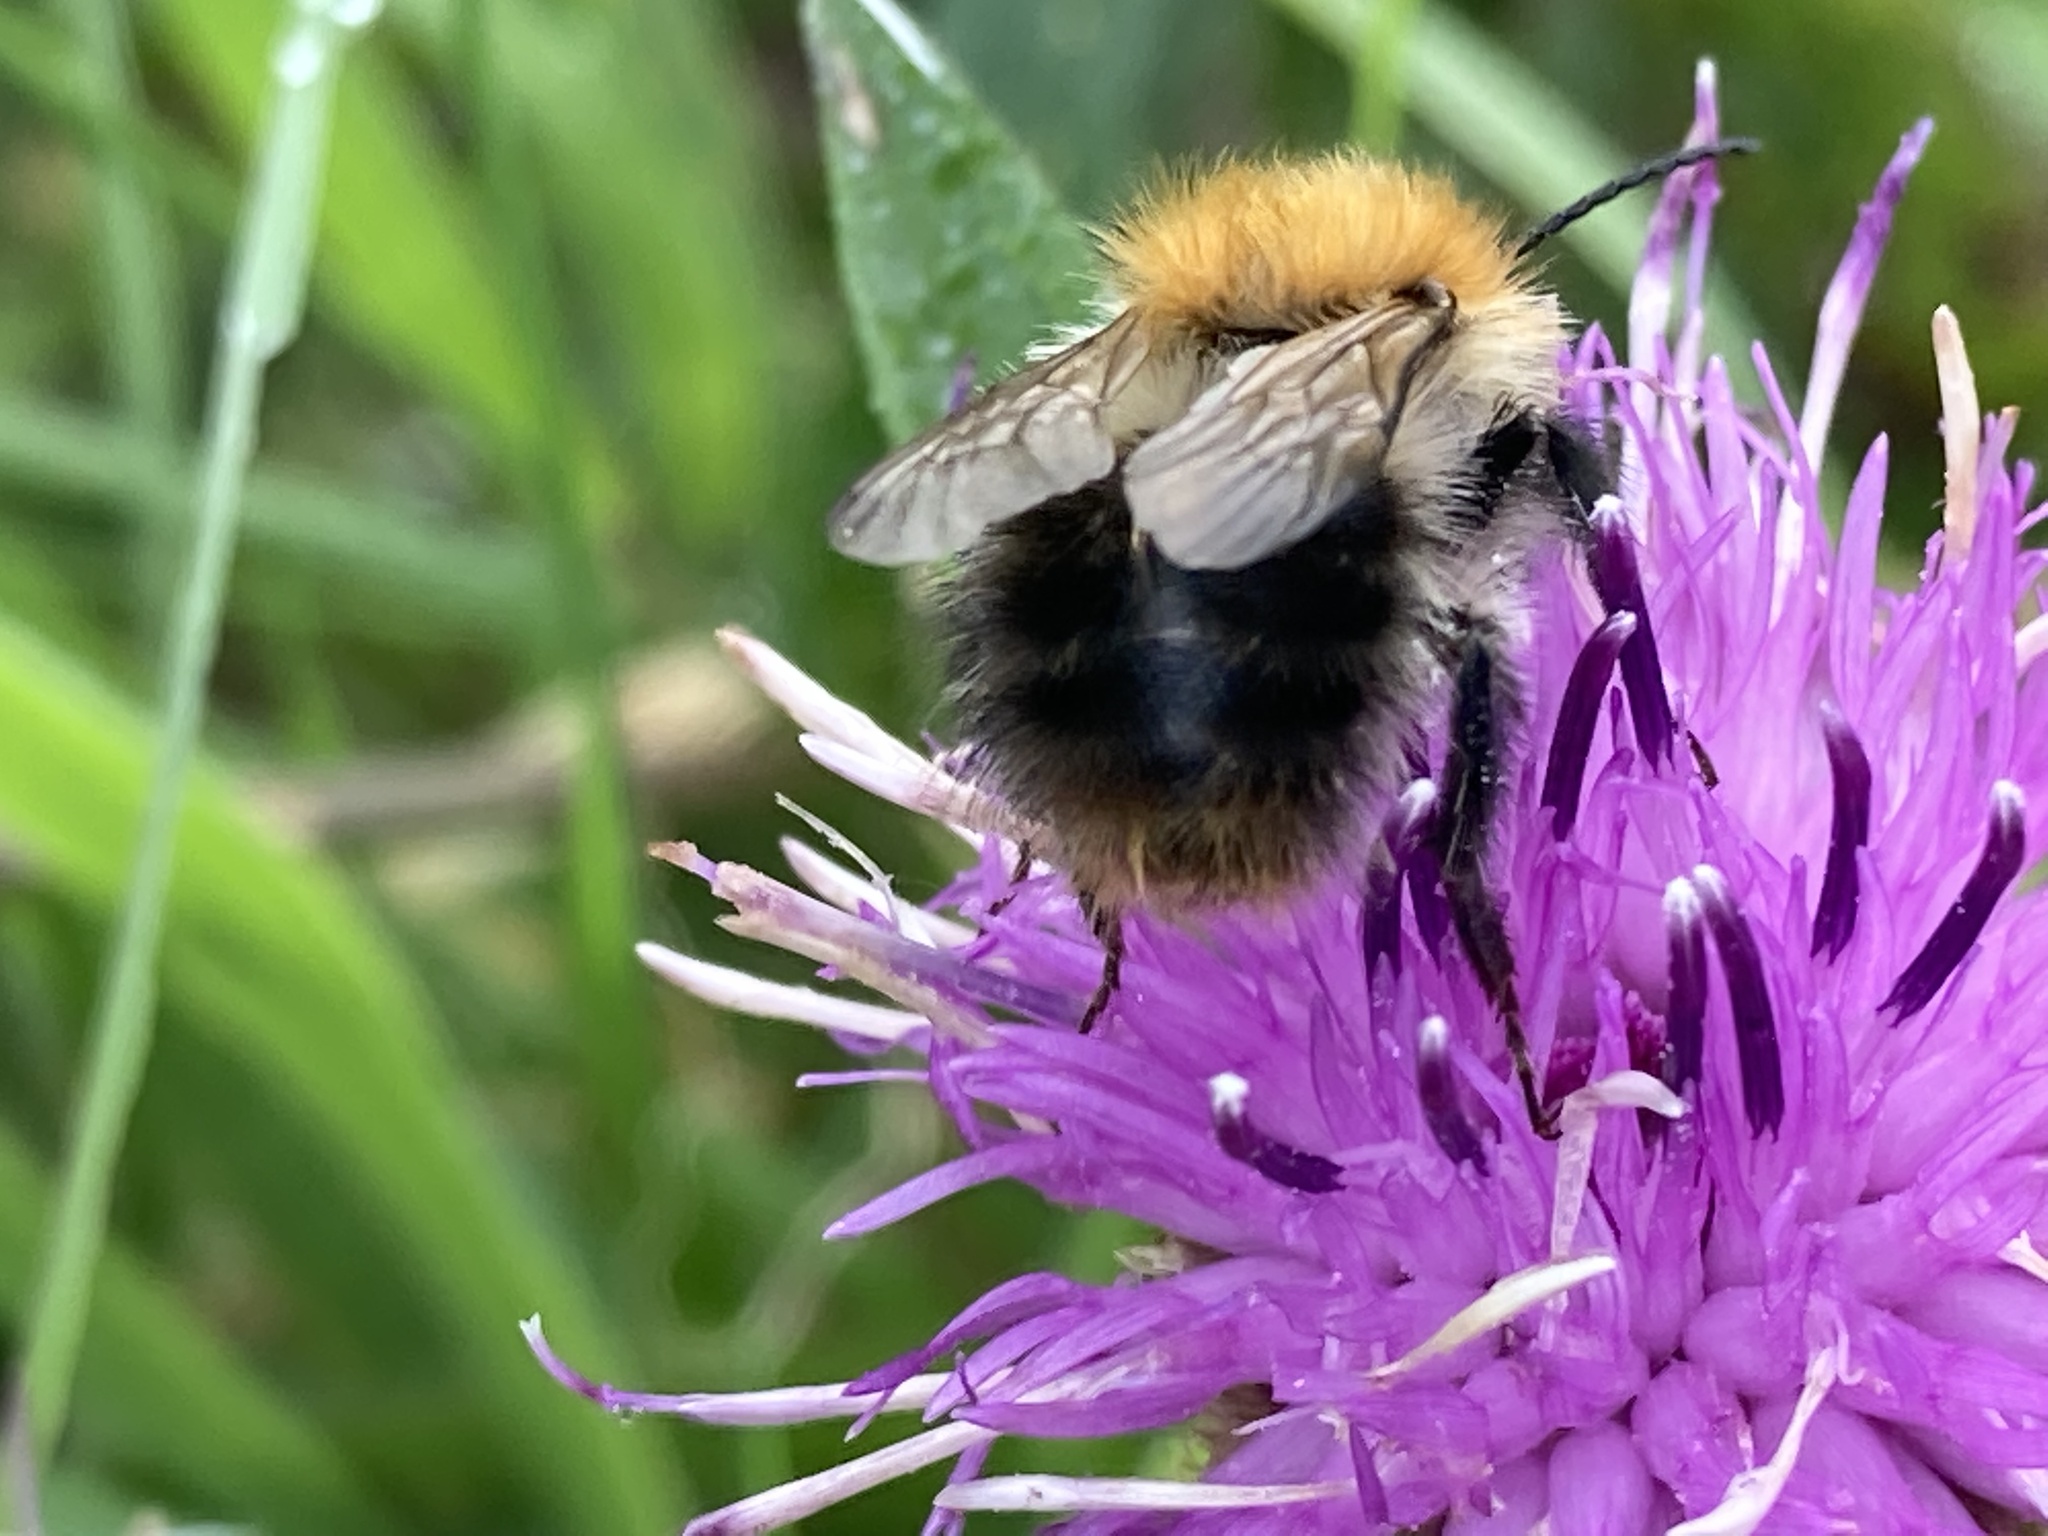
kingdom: Animalia
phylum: Arthropoda
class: Insecta
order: Hymenoptera
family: Apidae
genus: Bombus
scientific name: Bombus pascuorum
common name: Common carder bee
